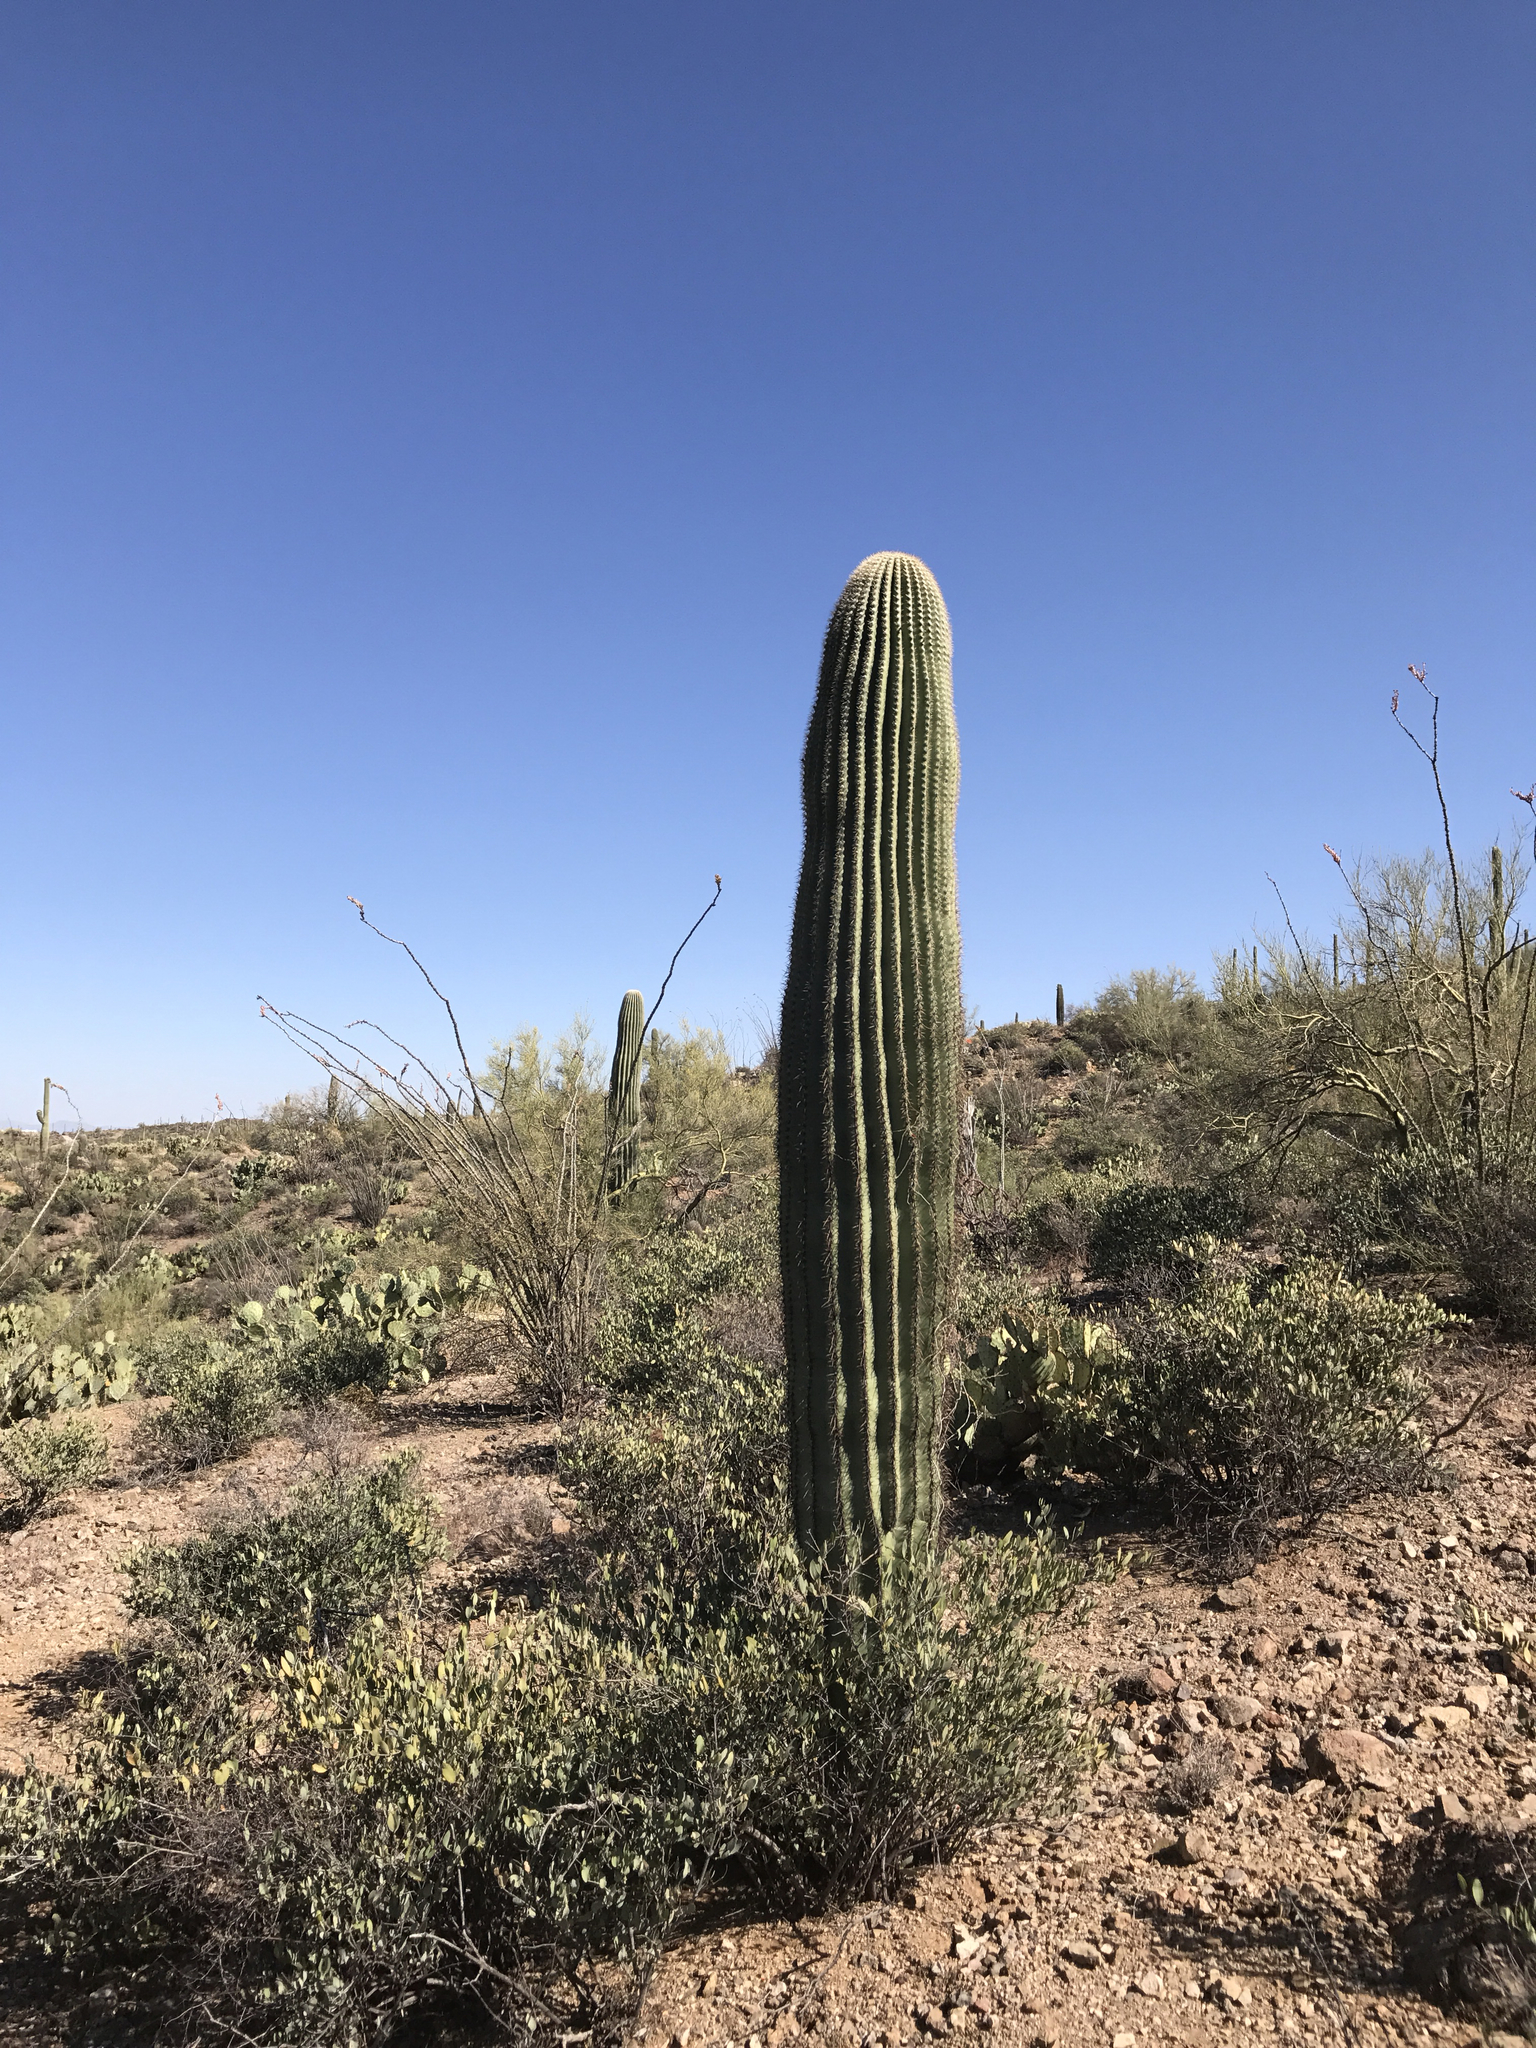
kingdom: Plantae
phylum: Tracheophyta
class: Magnoliopsida
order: Caryophyllales
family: Cactaceae
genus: Carnegiea
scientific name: Carnegiea gigantea
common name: Saguaro
